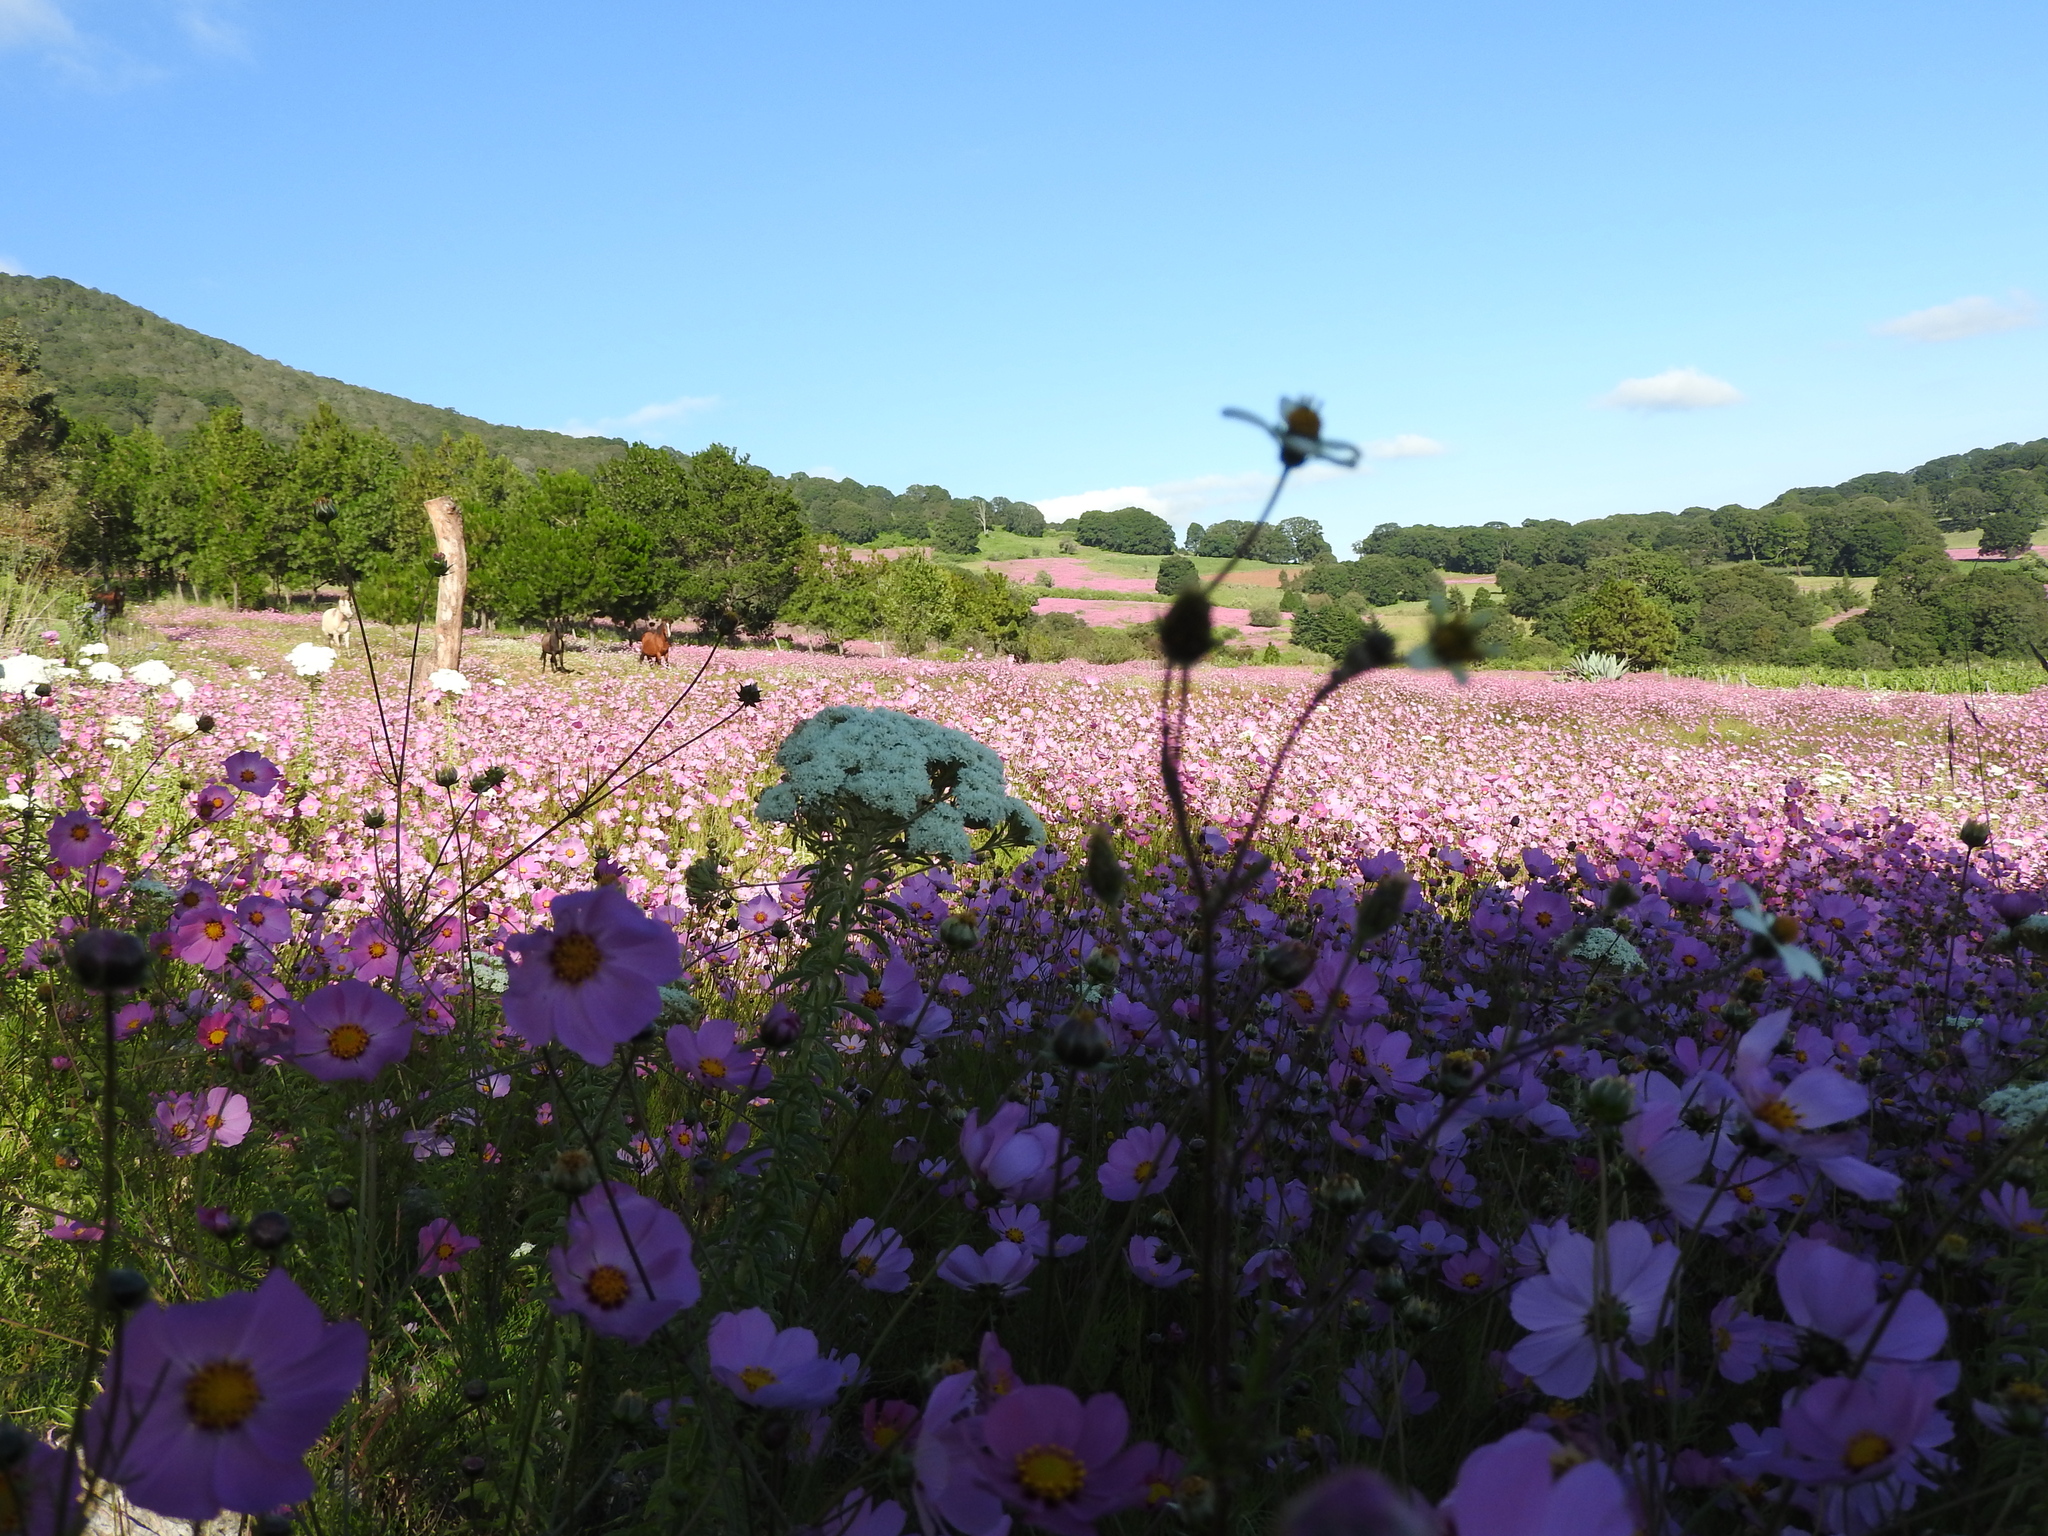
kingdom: Plantae
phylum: Tracheophyta
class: Magnoliopsida
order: Asterales
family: Asteraceae
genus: Cosmos
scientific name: Cosmos bipinnatus
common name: Garden cosmos
